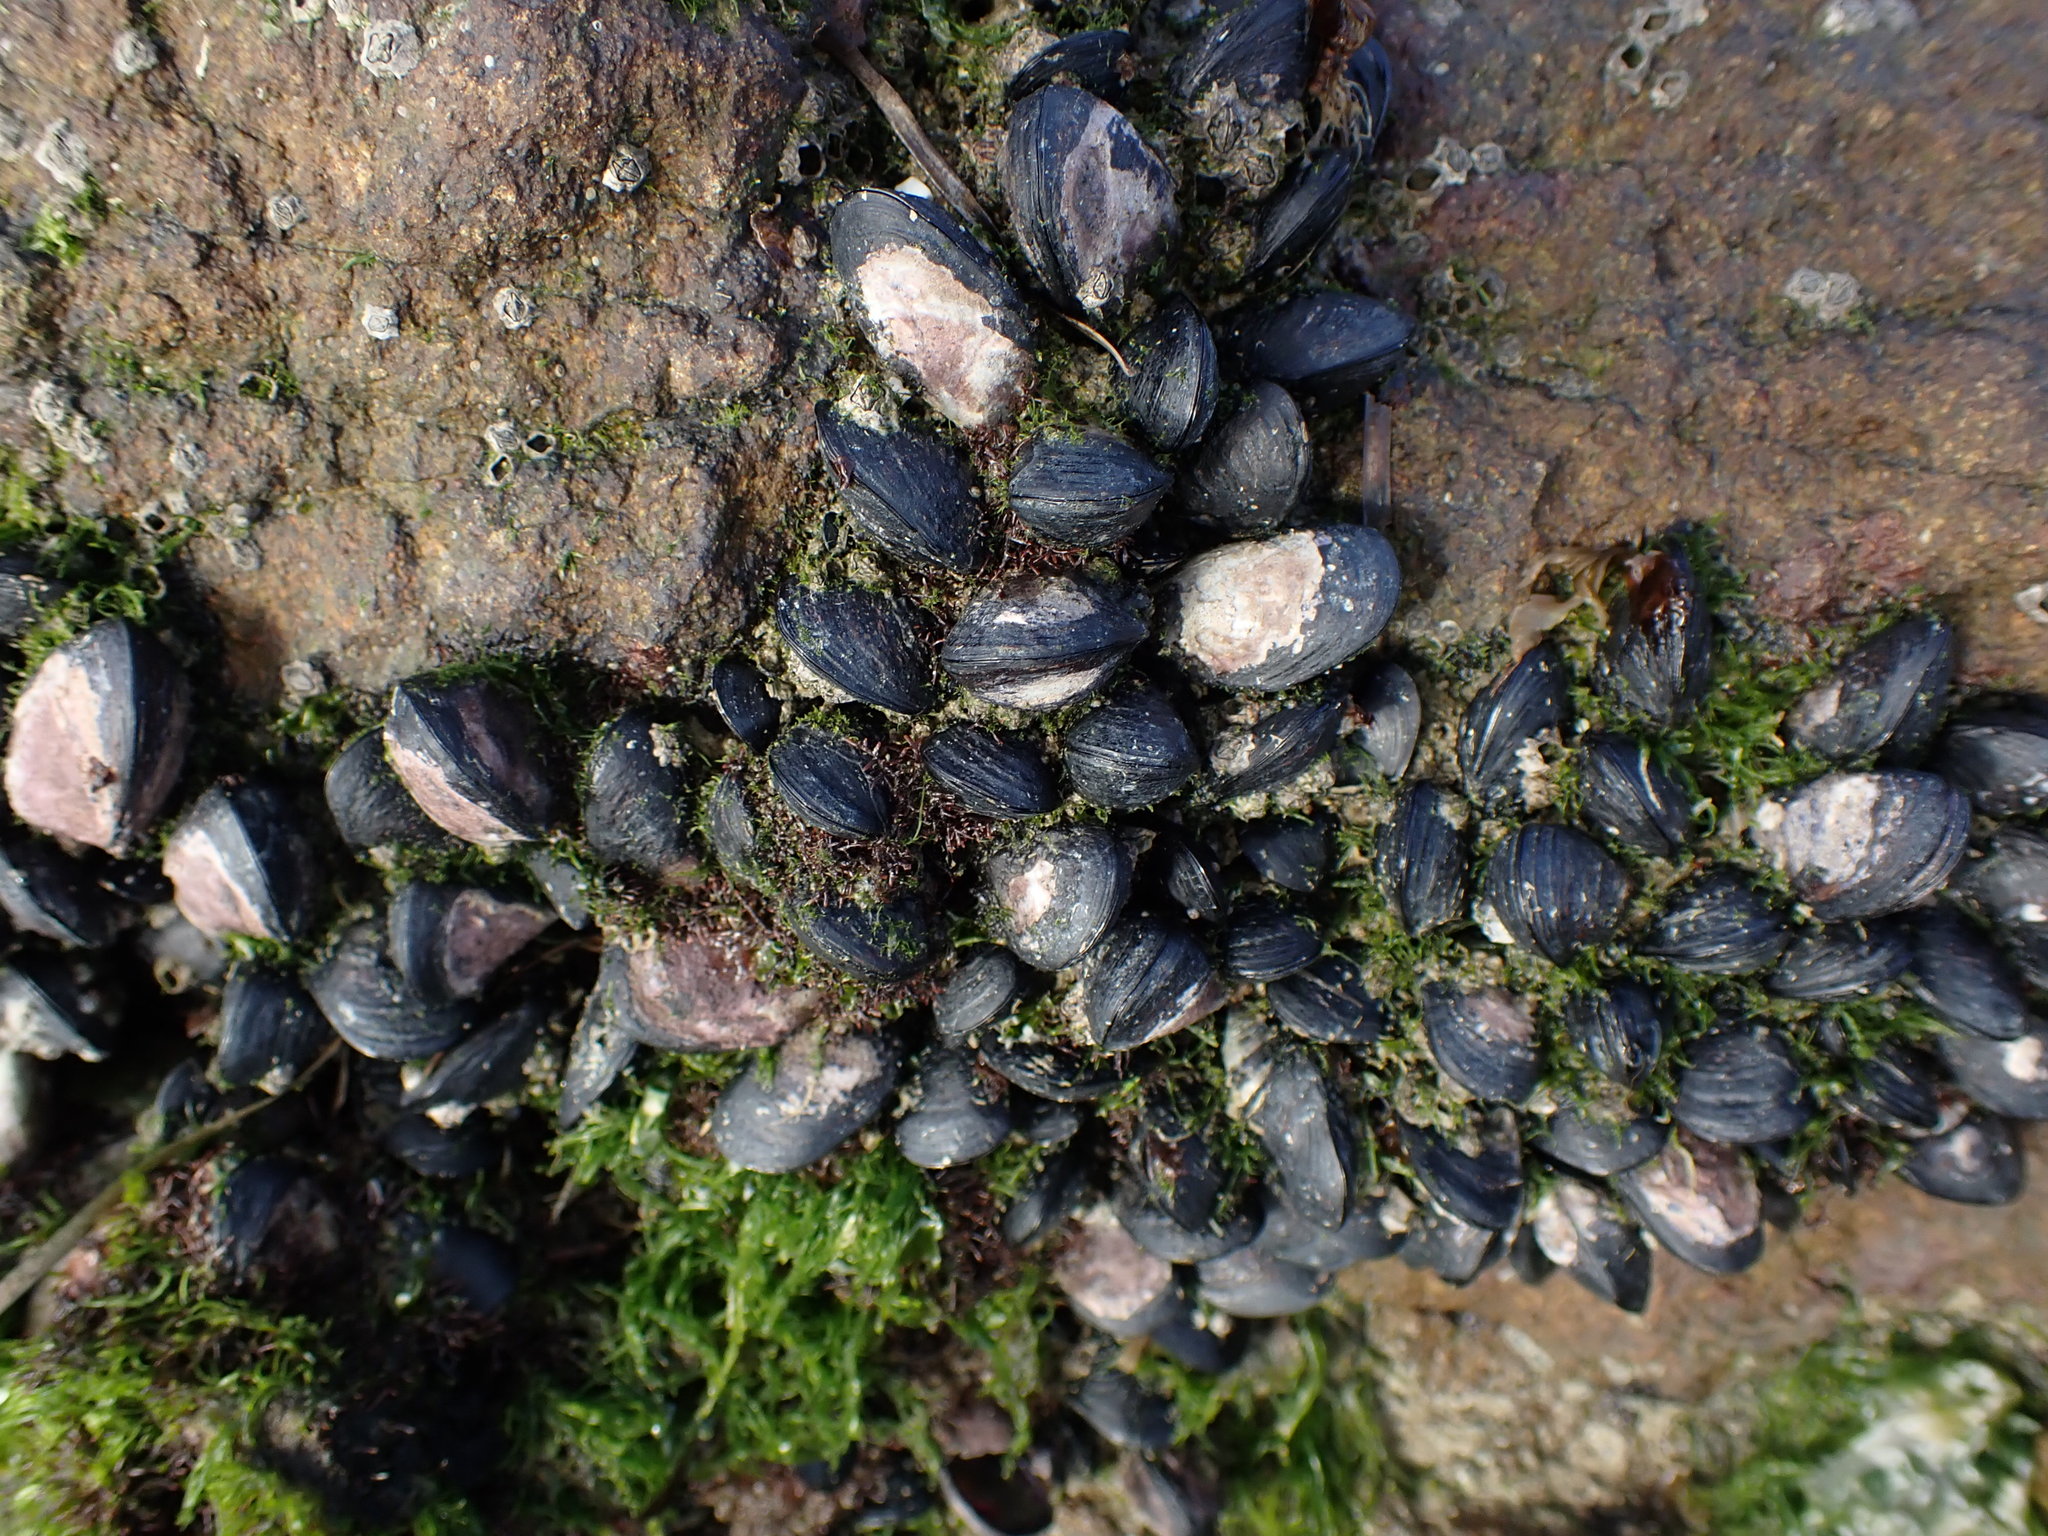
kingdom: Animalia
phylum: Mollusca
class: Bivalvia
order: Mytilida
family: Mytilidae
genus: Xenostrobus
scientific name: Xenostrobus neozelanicus
